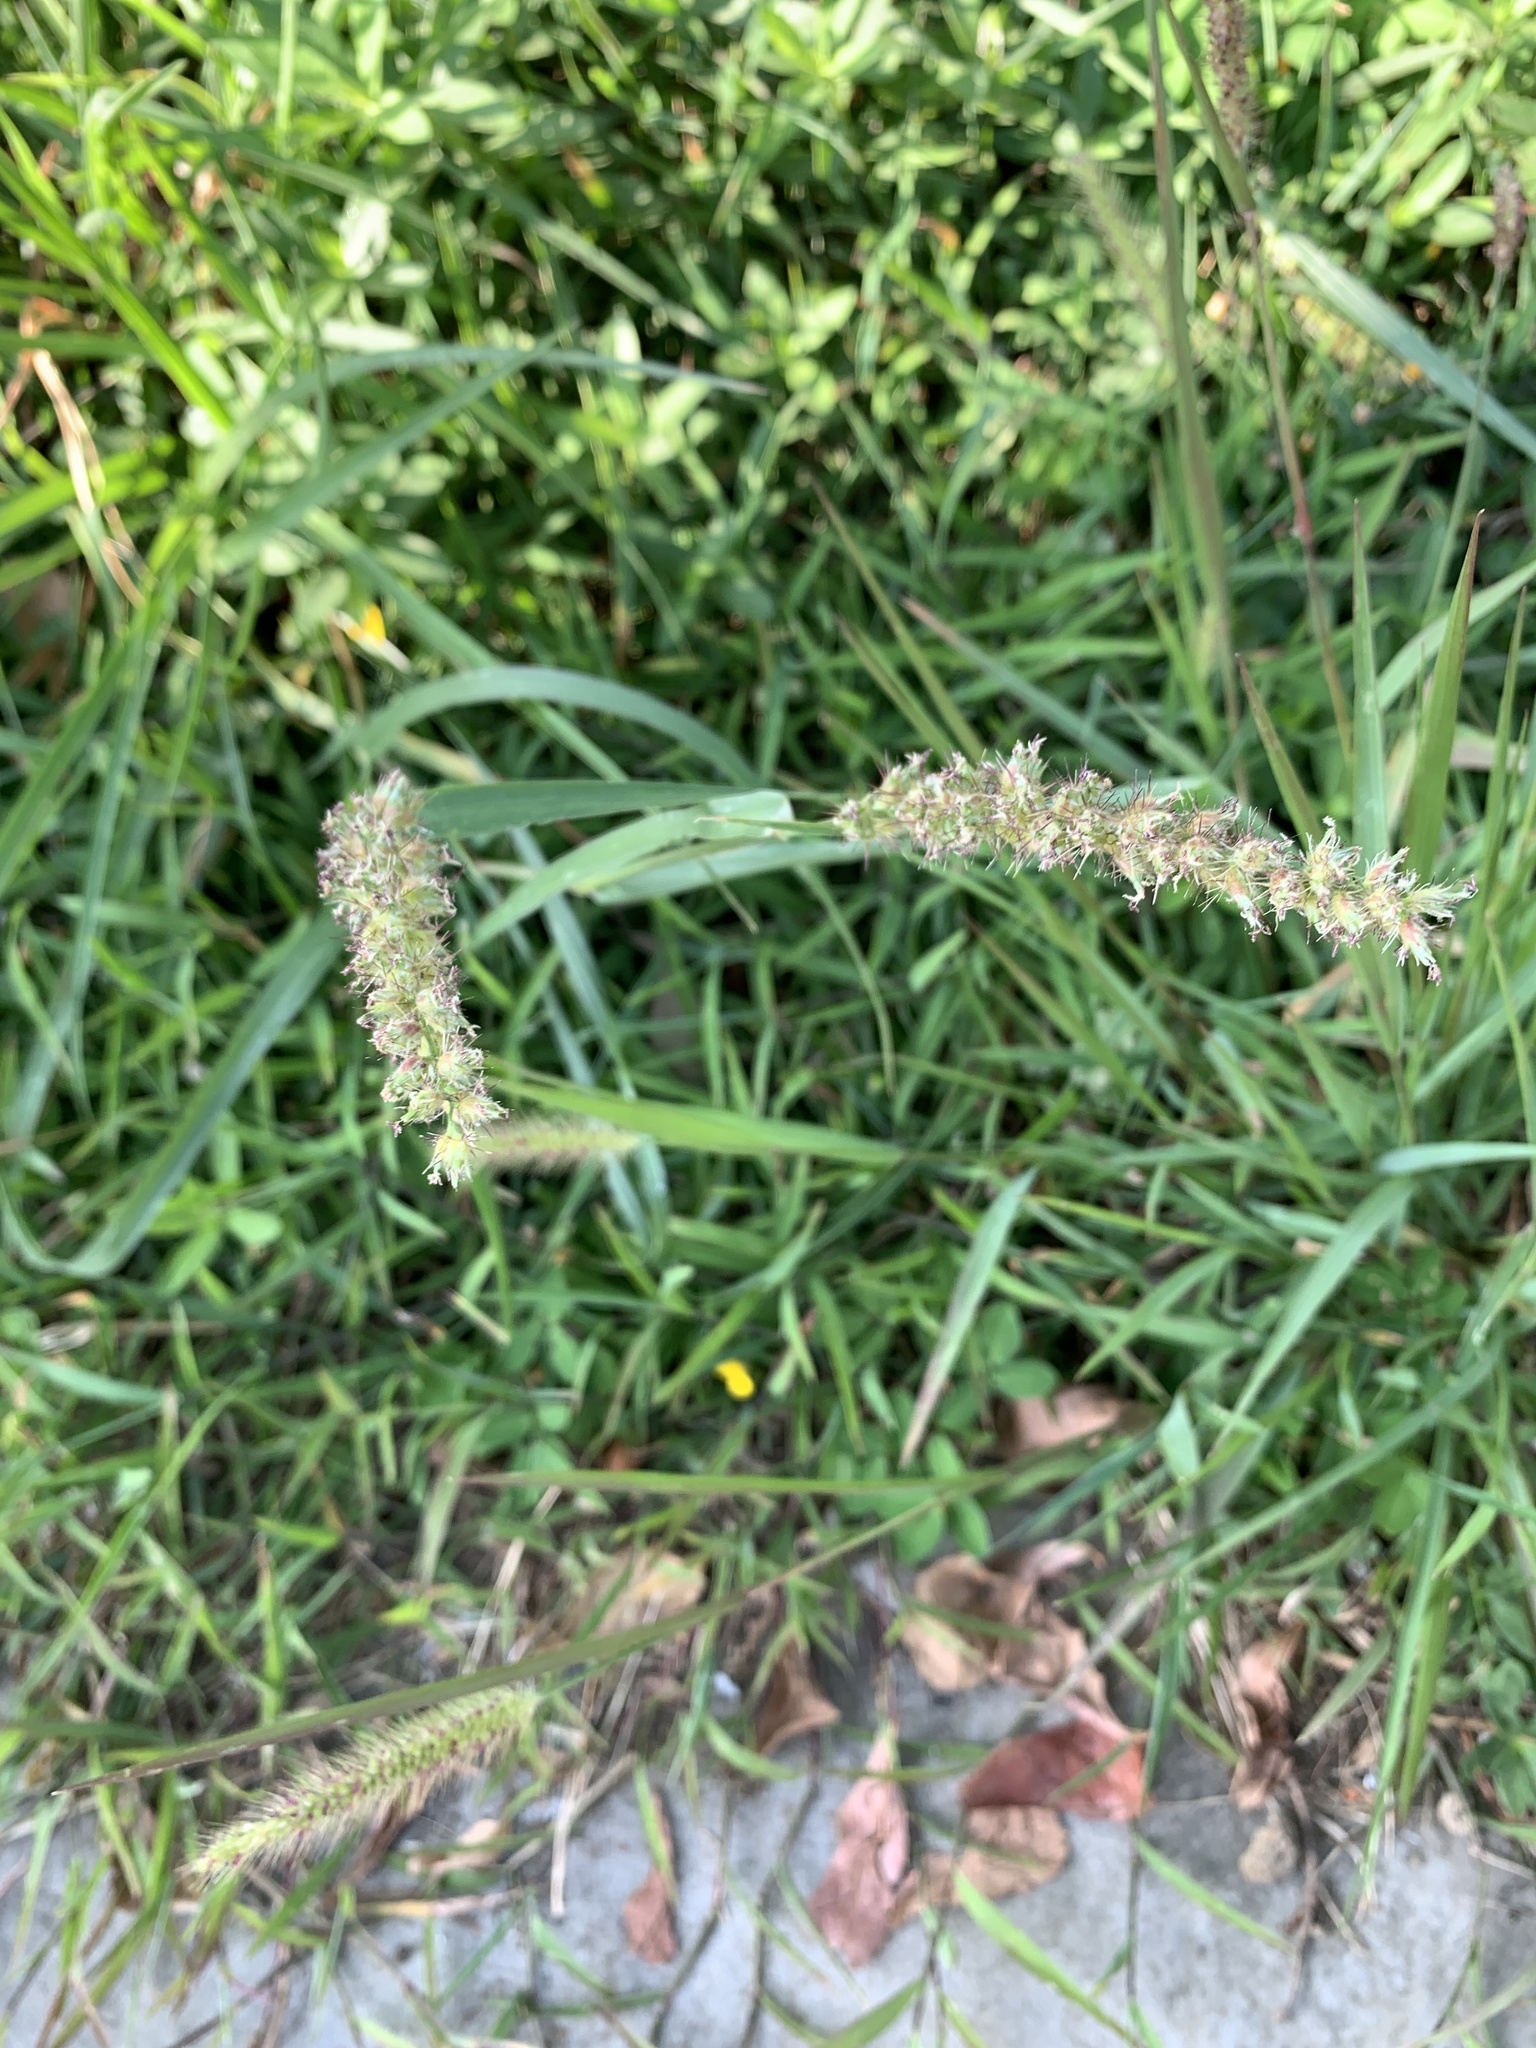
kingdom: Plantae
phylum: Tracheophyta
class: Liliopsida
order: Poales
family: Poaceae
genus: Cenchrus
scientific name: Cenchrus echinatus
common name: Southern sandbur
